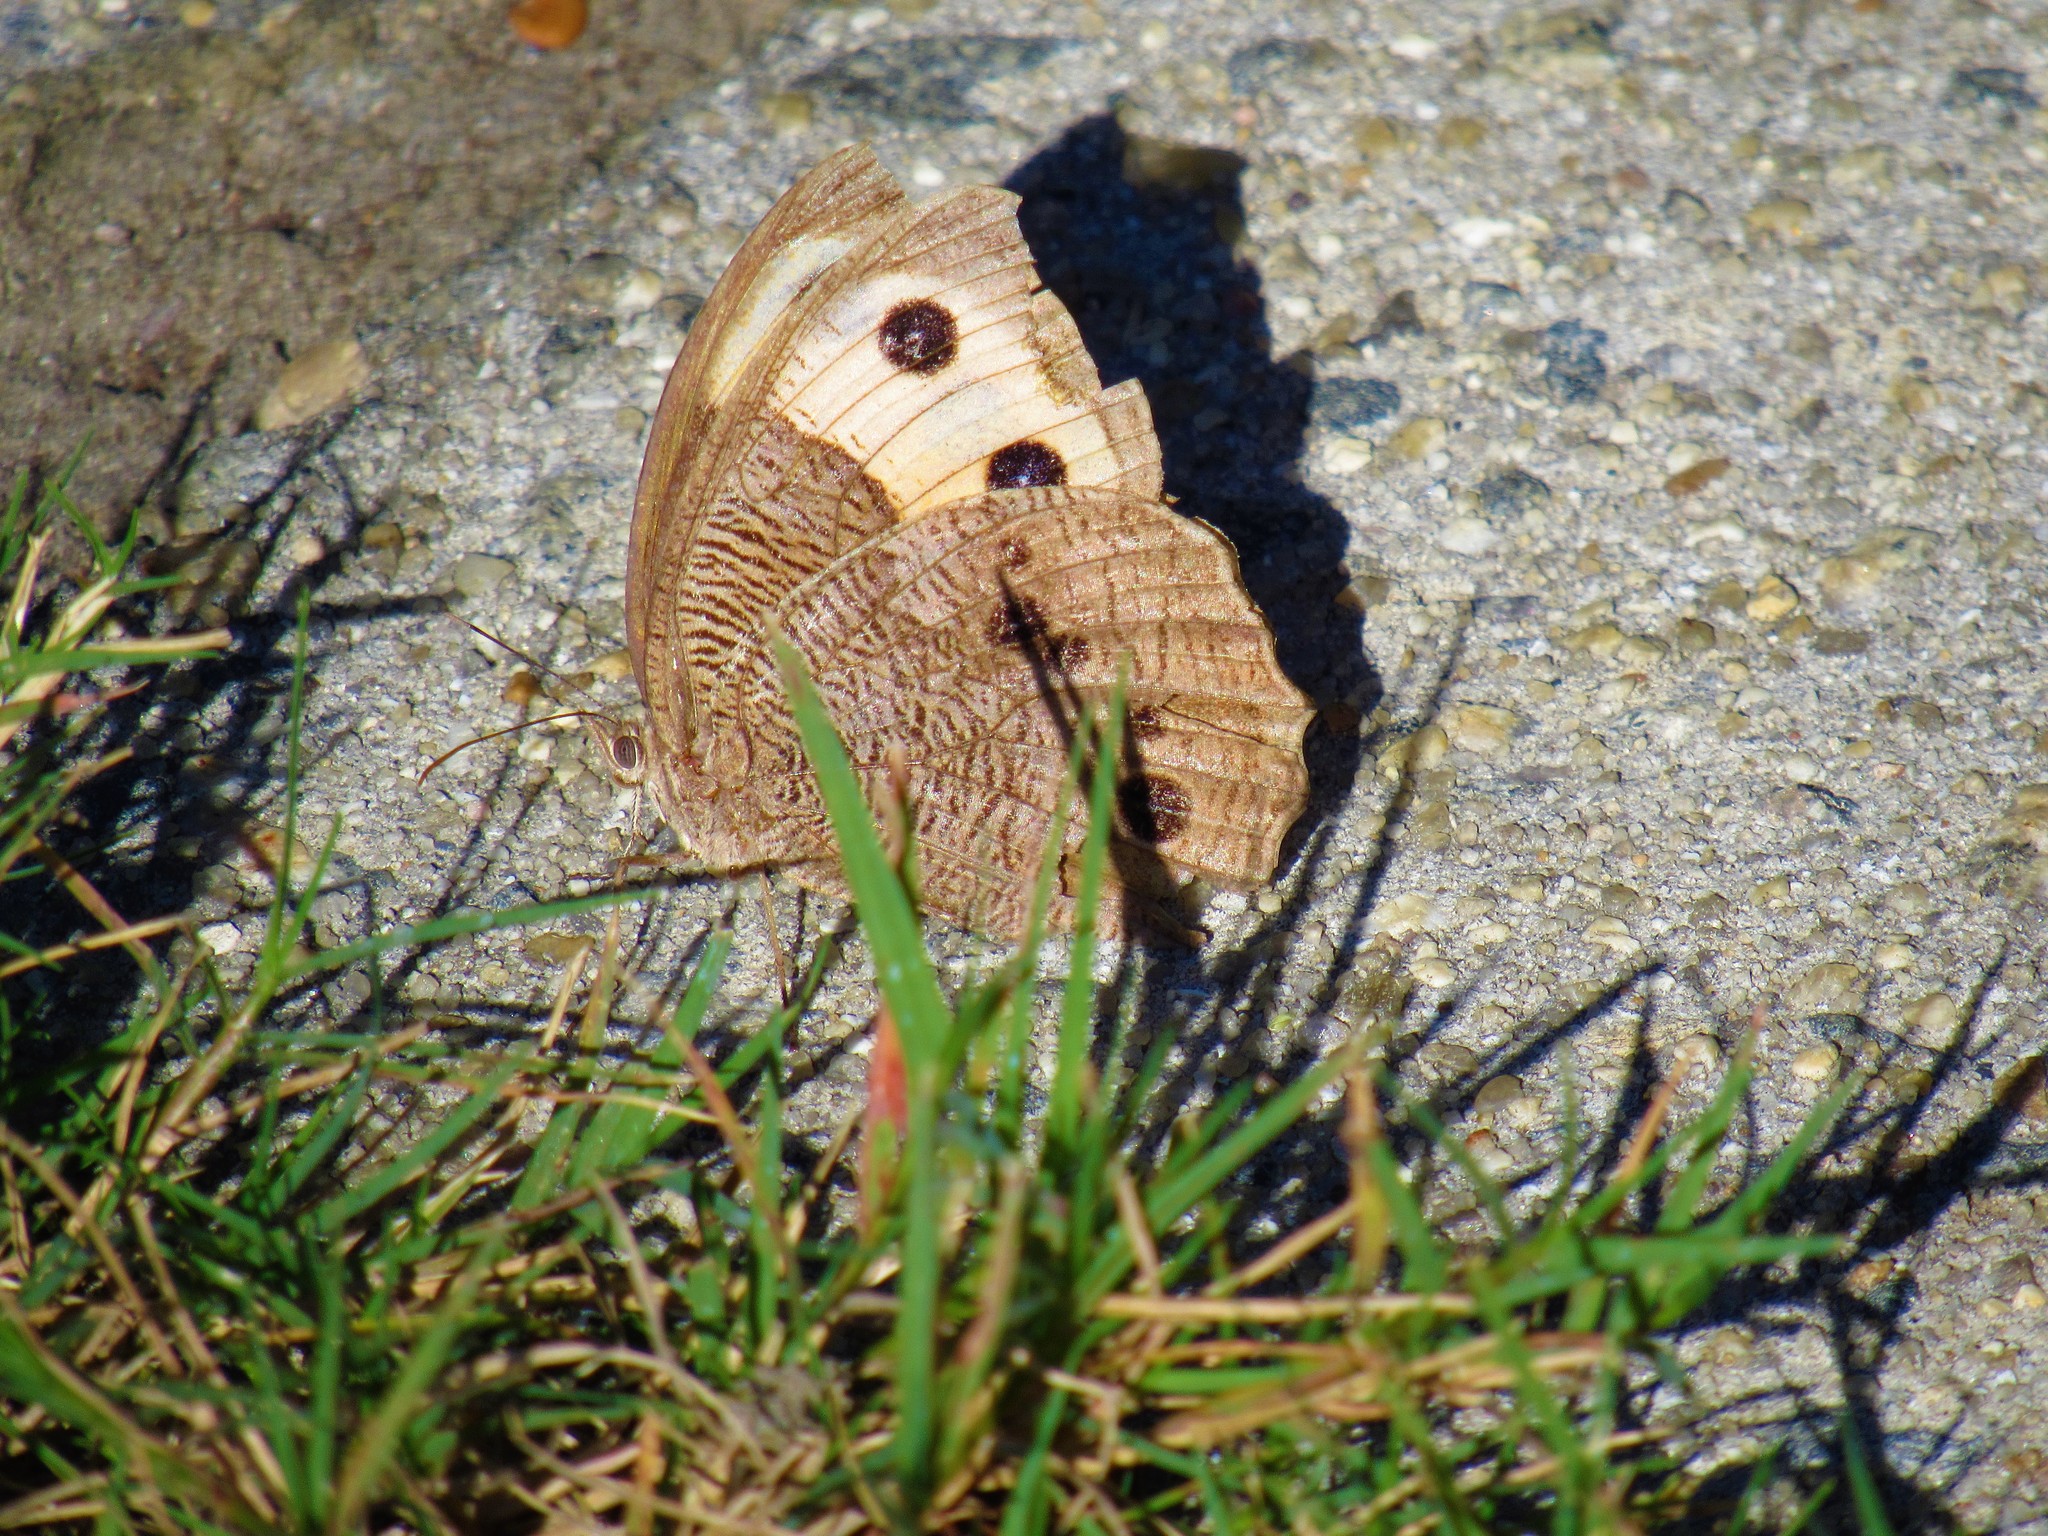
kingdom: Animalia
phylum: Arthropoda
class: Insecta
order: Lepidoptera
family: Nymphalidae
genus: Cercyonis
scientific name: Cercyonis pegala
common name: Common wood-nymph
